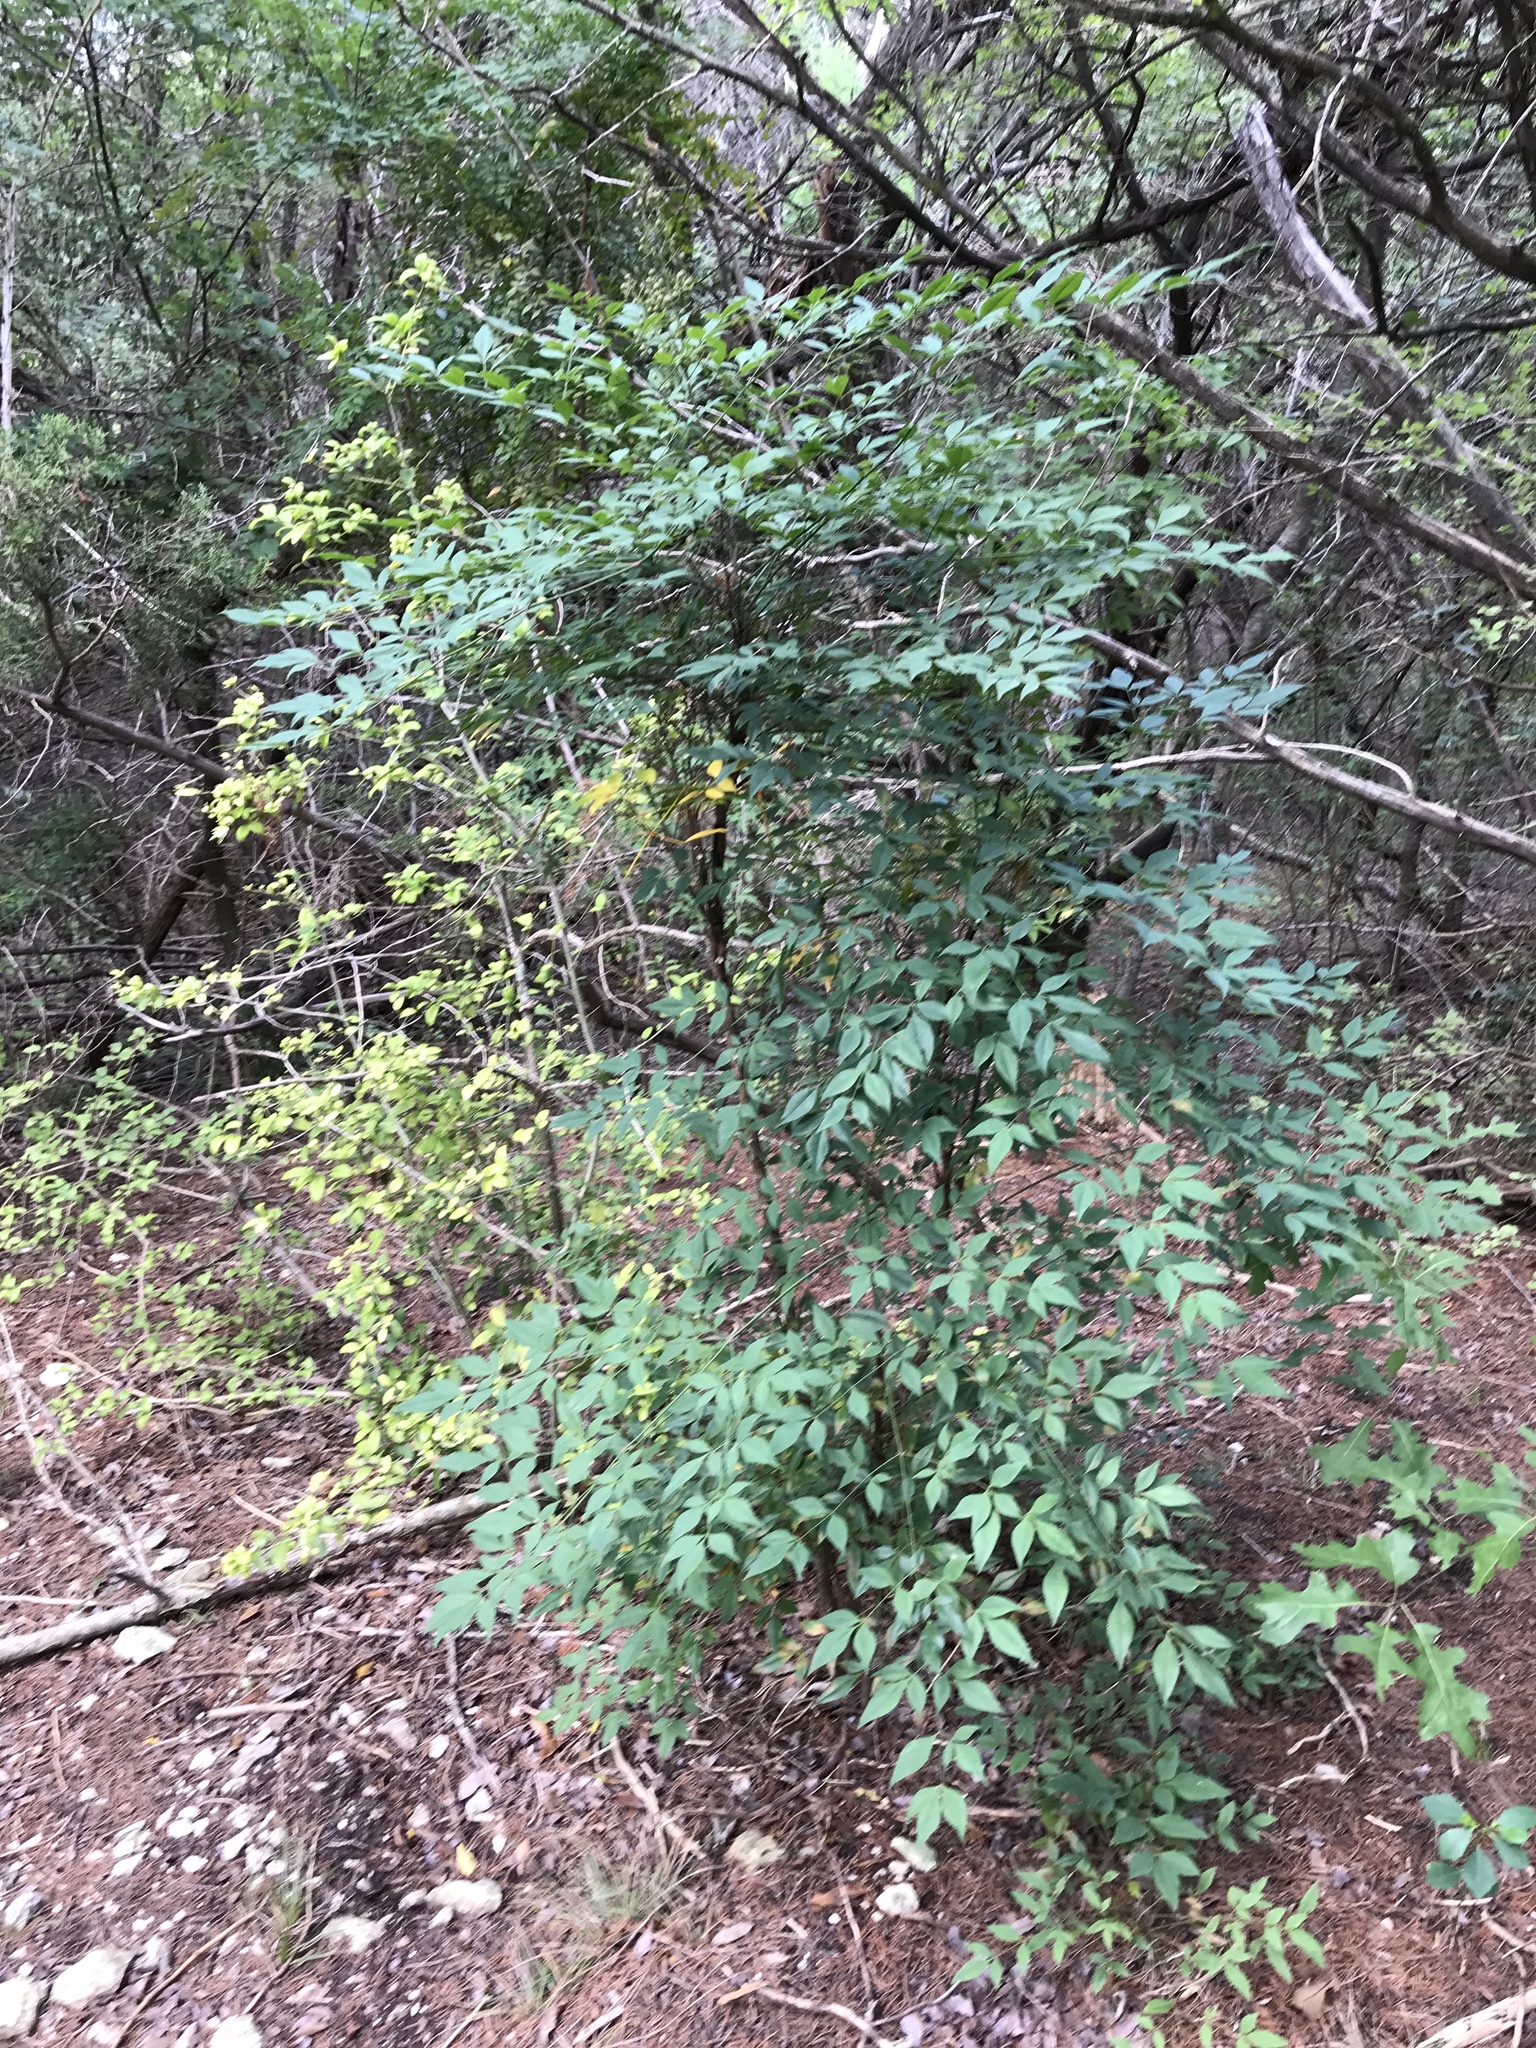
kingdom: Plantae
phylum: Tracheophyta
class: Magnoliopsida
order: Ranunculales
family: Berberidaceae
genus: Nandina
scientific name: Nandina domestica
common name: Sacred bamboo
